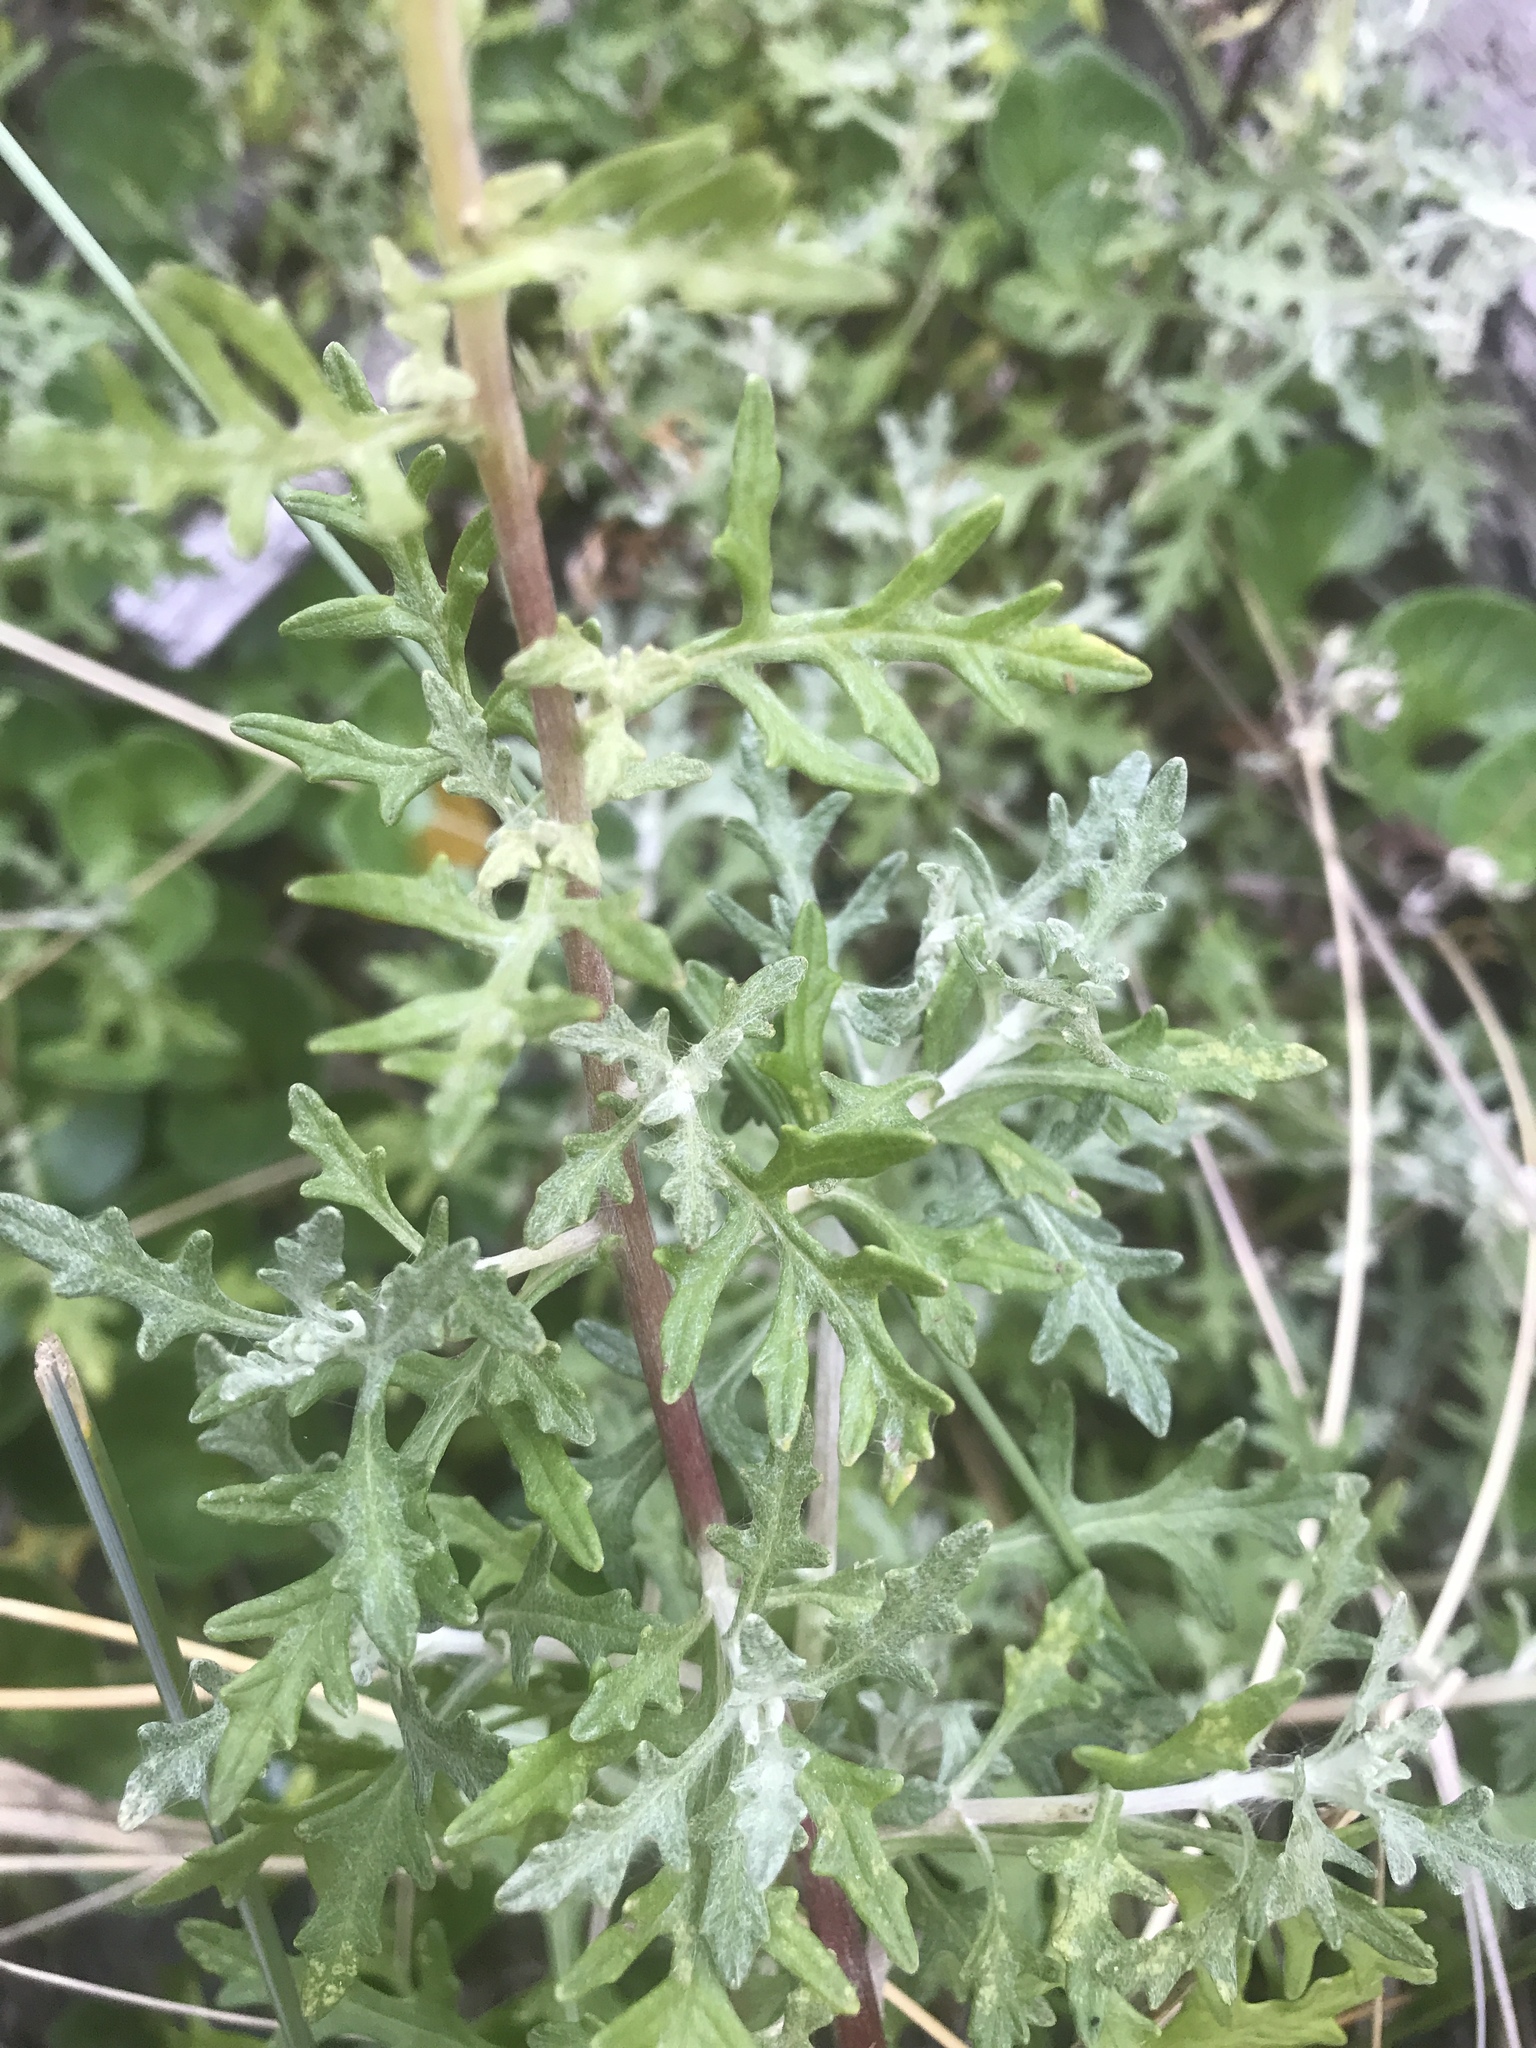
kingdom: Plantae
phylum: Tracheophyta
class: Magnoliopsida
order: Asterales
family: Asteraceae
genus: Eriophyllum
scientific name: Eriophyllum staechadifolium
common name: Lizardtail
